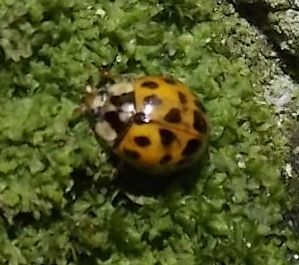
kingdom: Animalia
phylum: Arthropoda
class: Insecta
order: Coleoptera
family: Coccinellidae
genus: Harmonia
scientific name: Harmonia axyridis
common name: Harlequin ladybird
